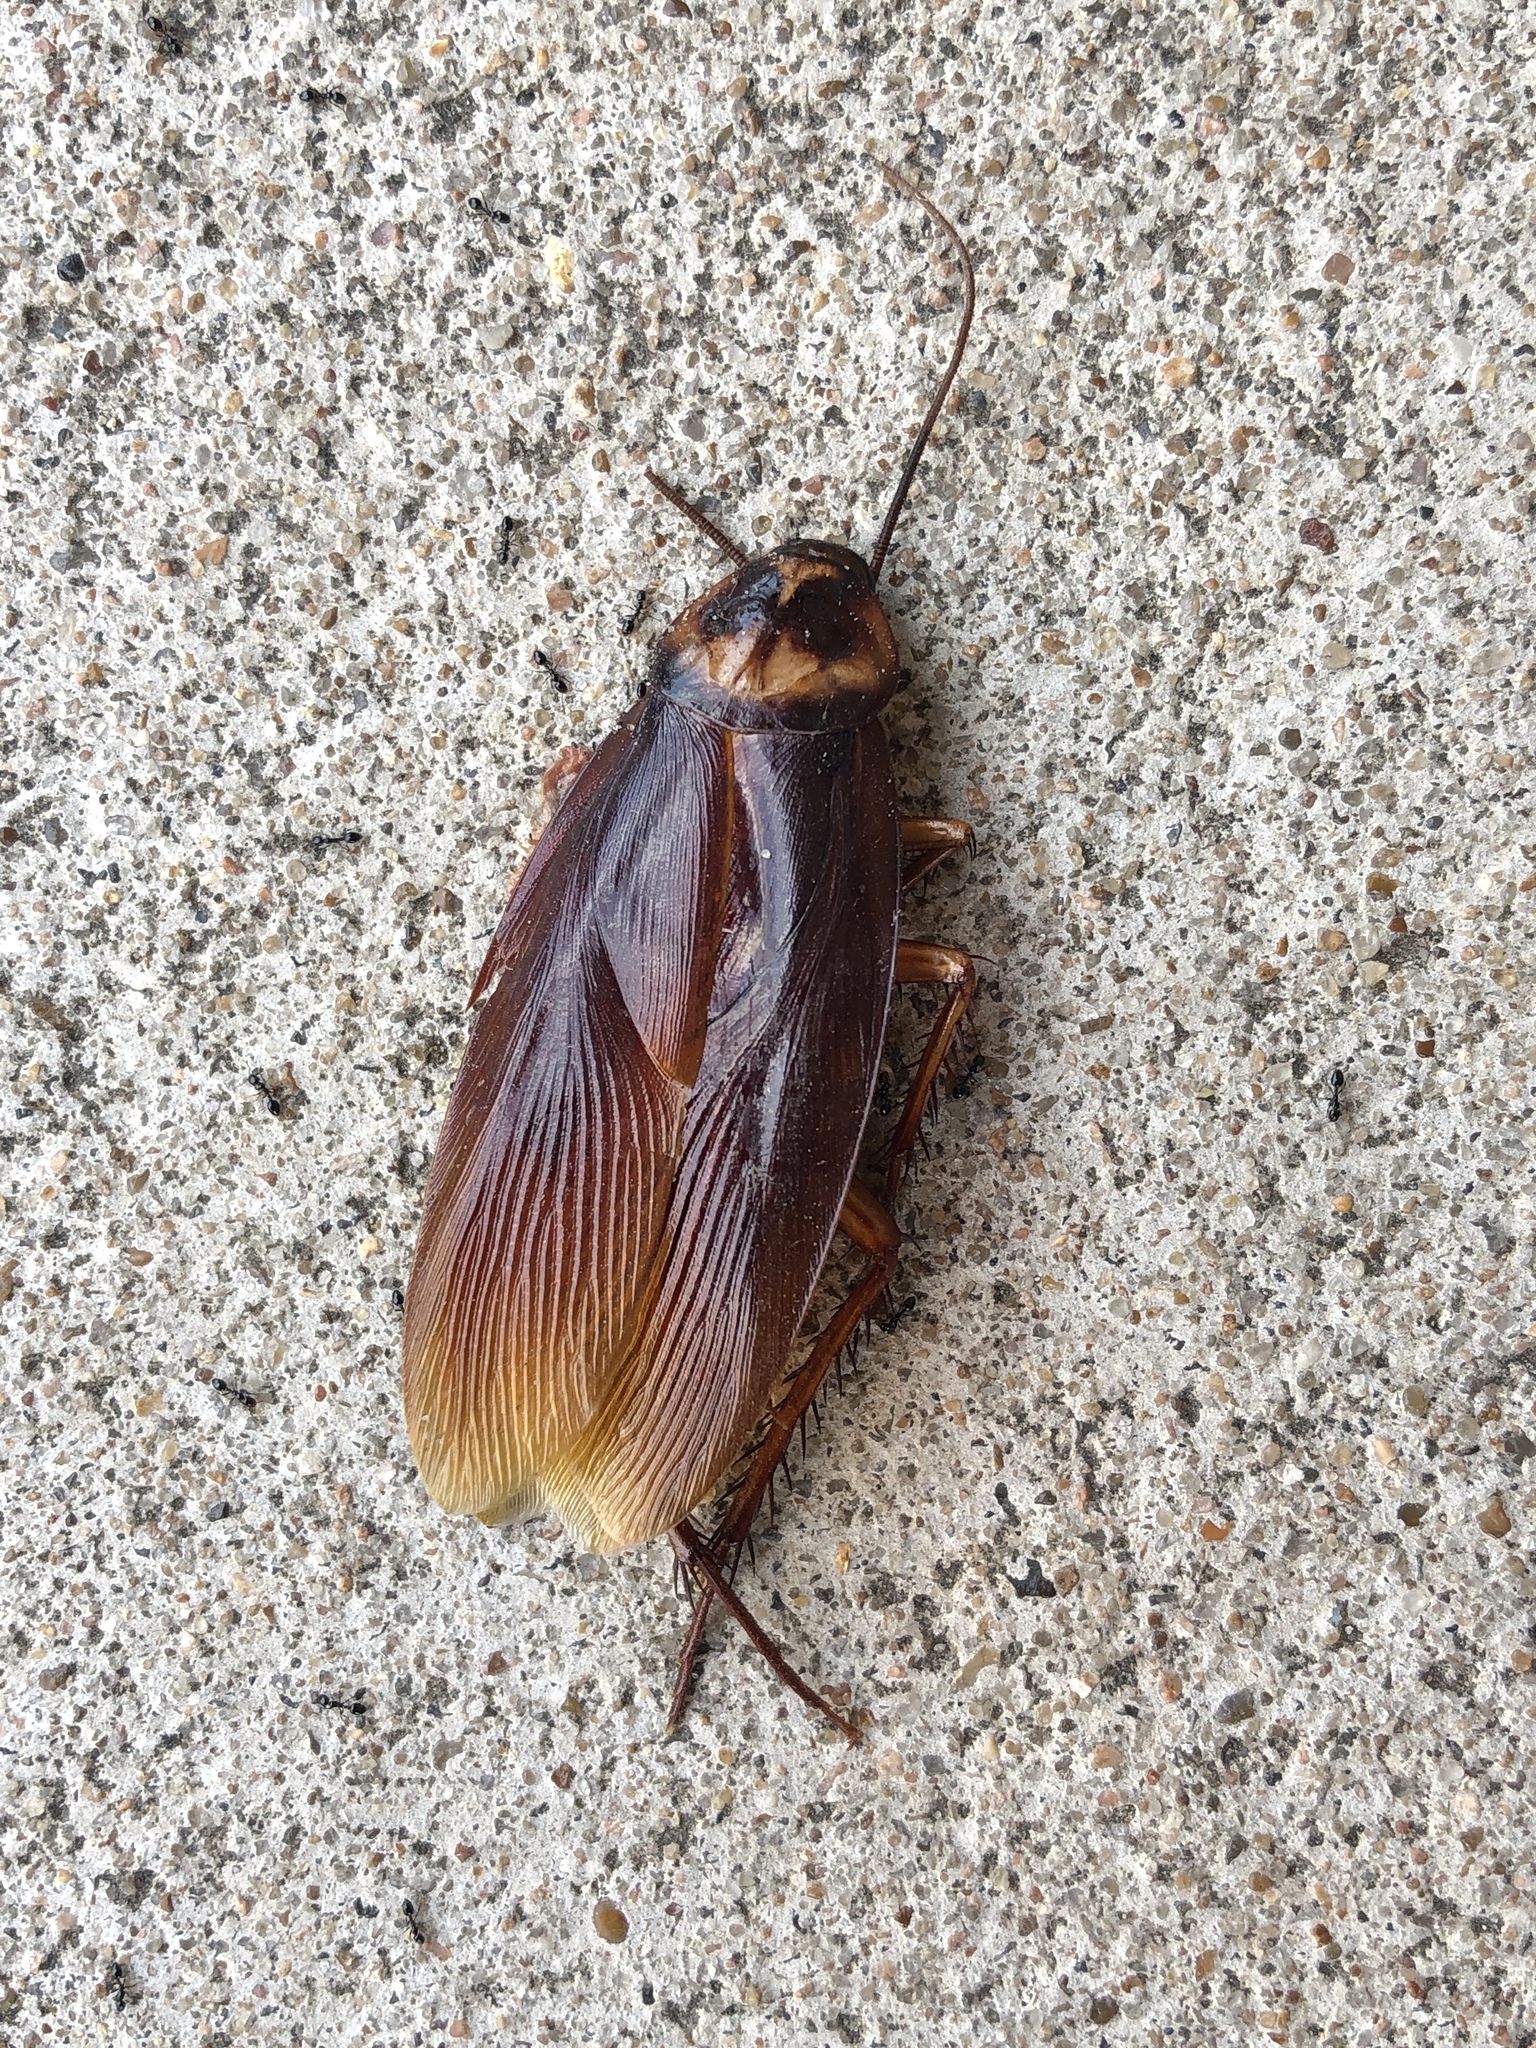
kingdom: Animalia
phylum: Arthropoda
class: Insecta
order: Blattodea
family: Blattidae
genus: Periplaneta
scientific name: Periplaneta americana
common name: American cockroach
